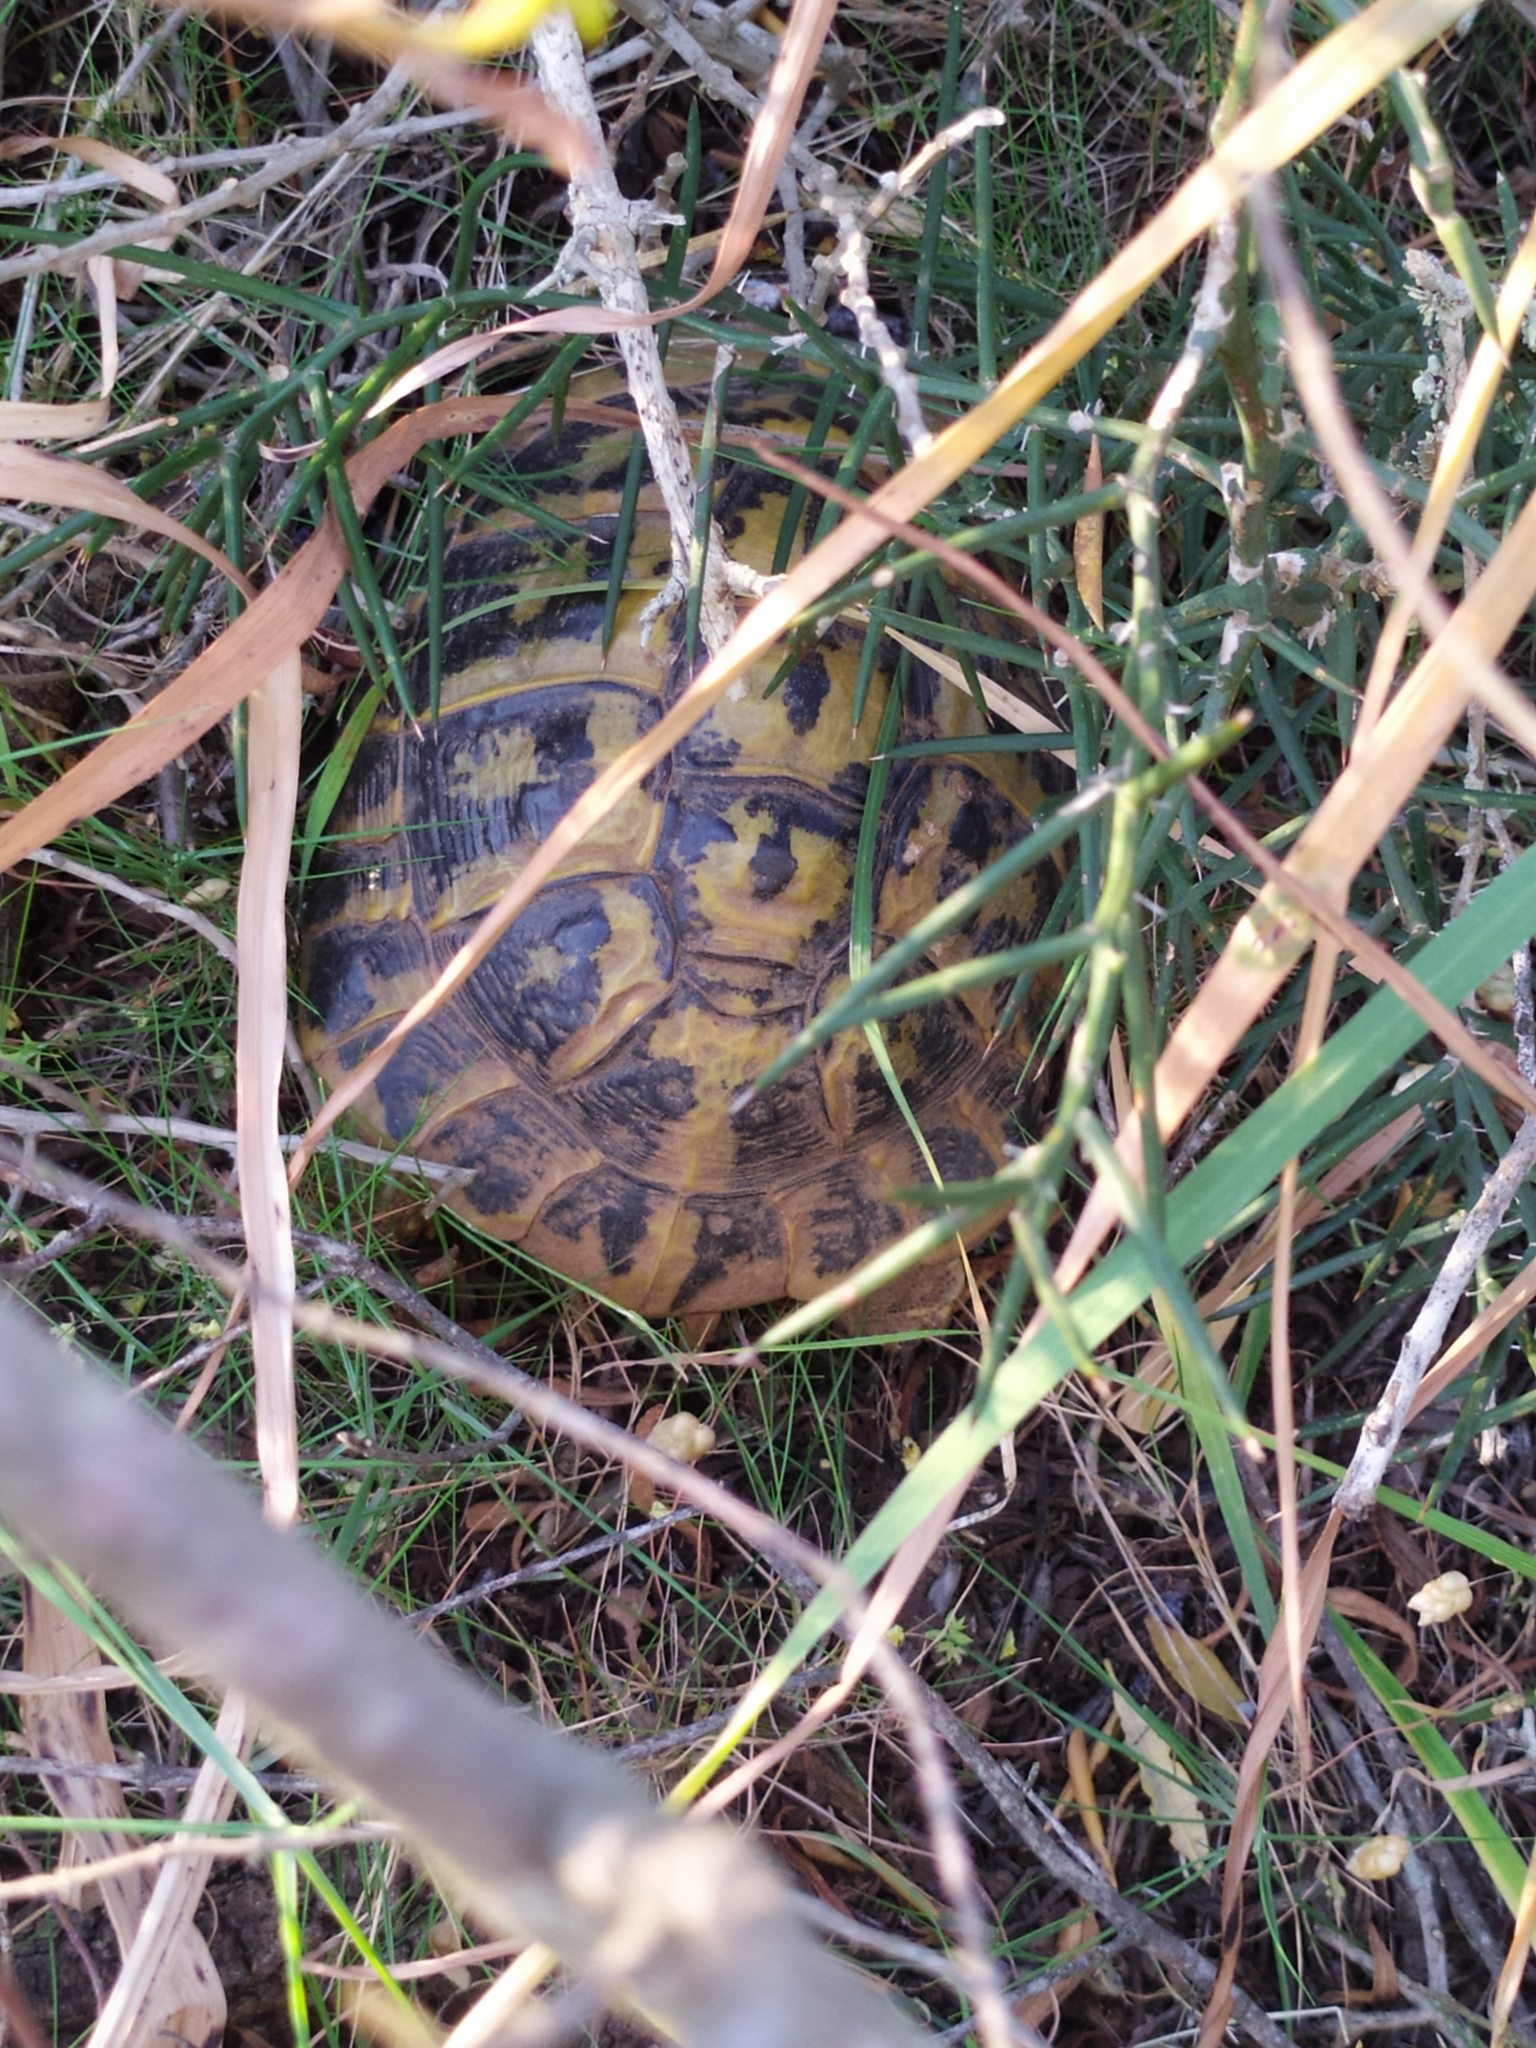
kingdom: Animalia
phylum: Chordata
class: Testudines
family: Testudinidae
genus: Testudo
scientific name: Testudo hermanni
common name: Hermann's tortoise
